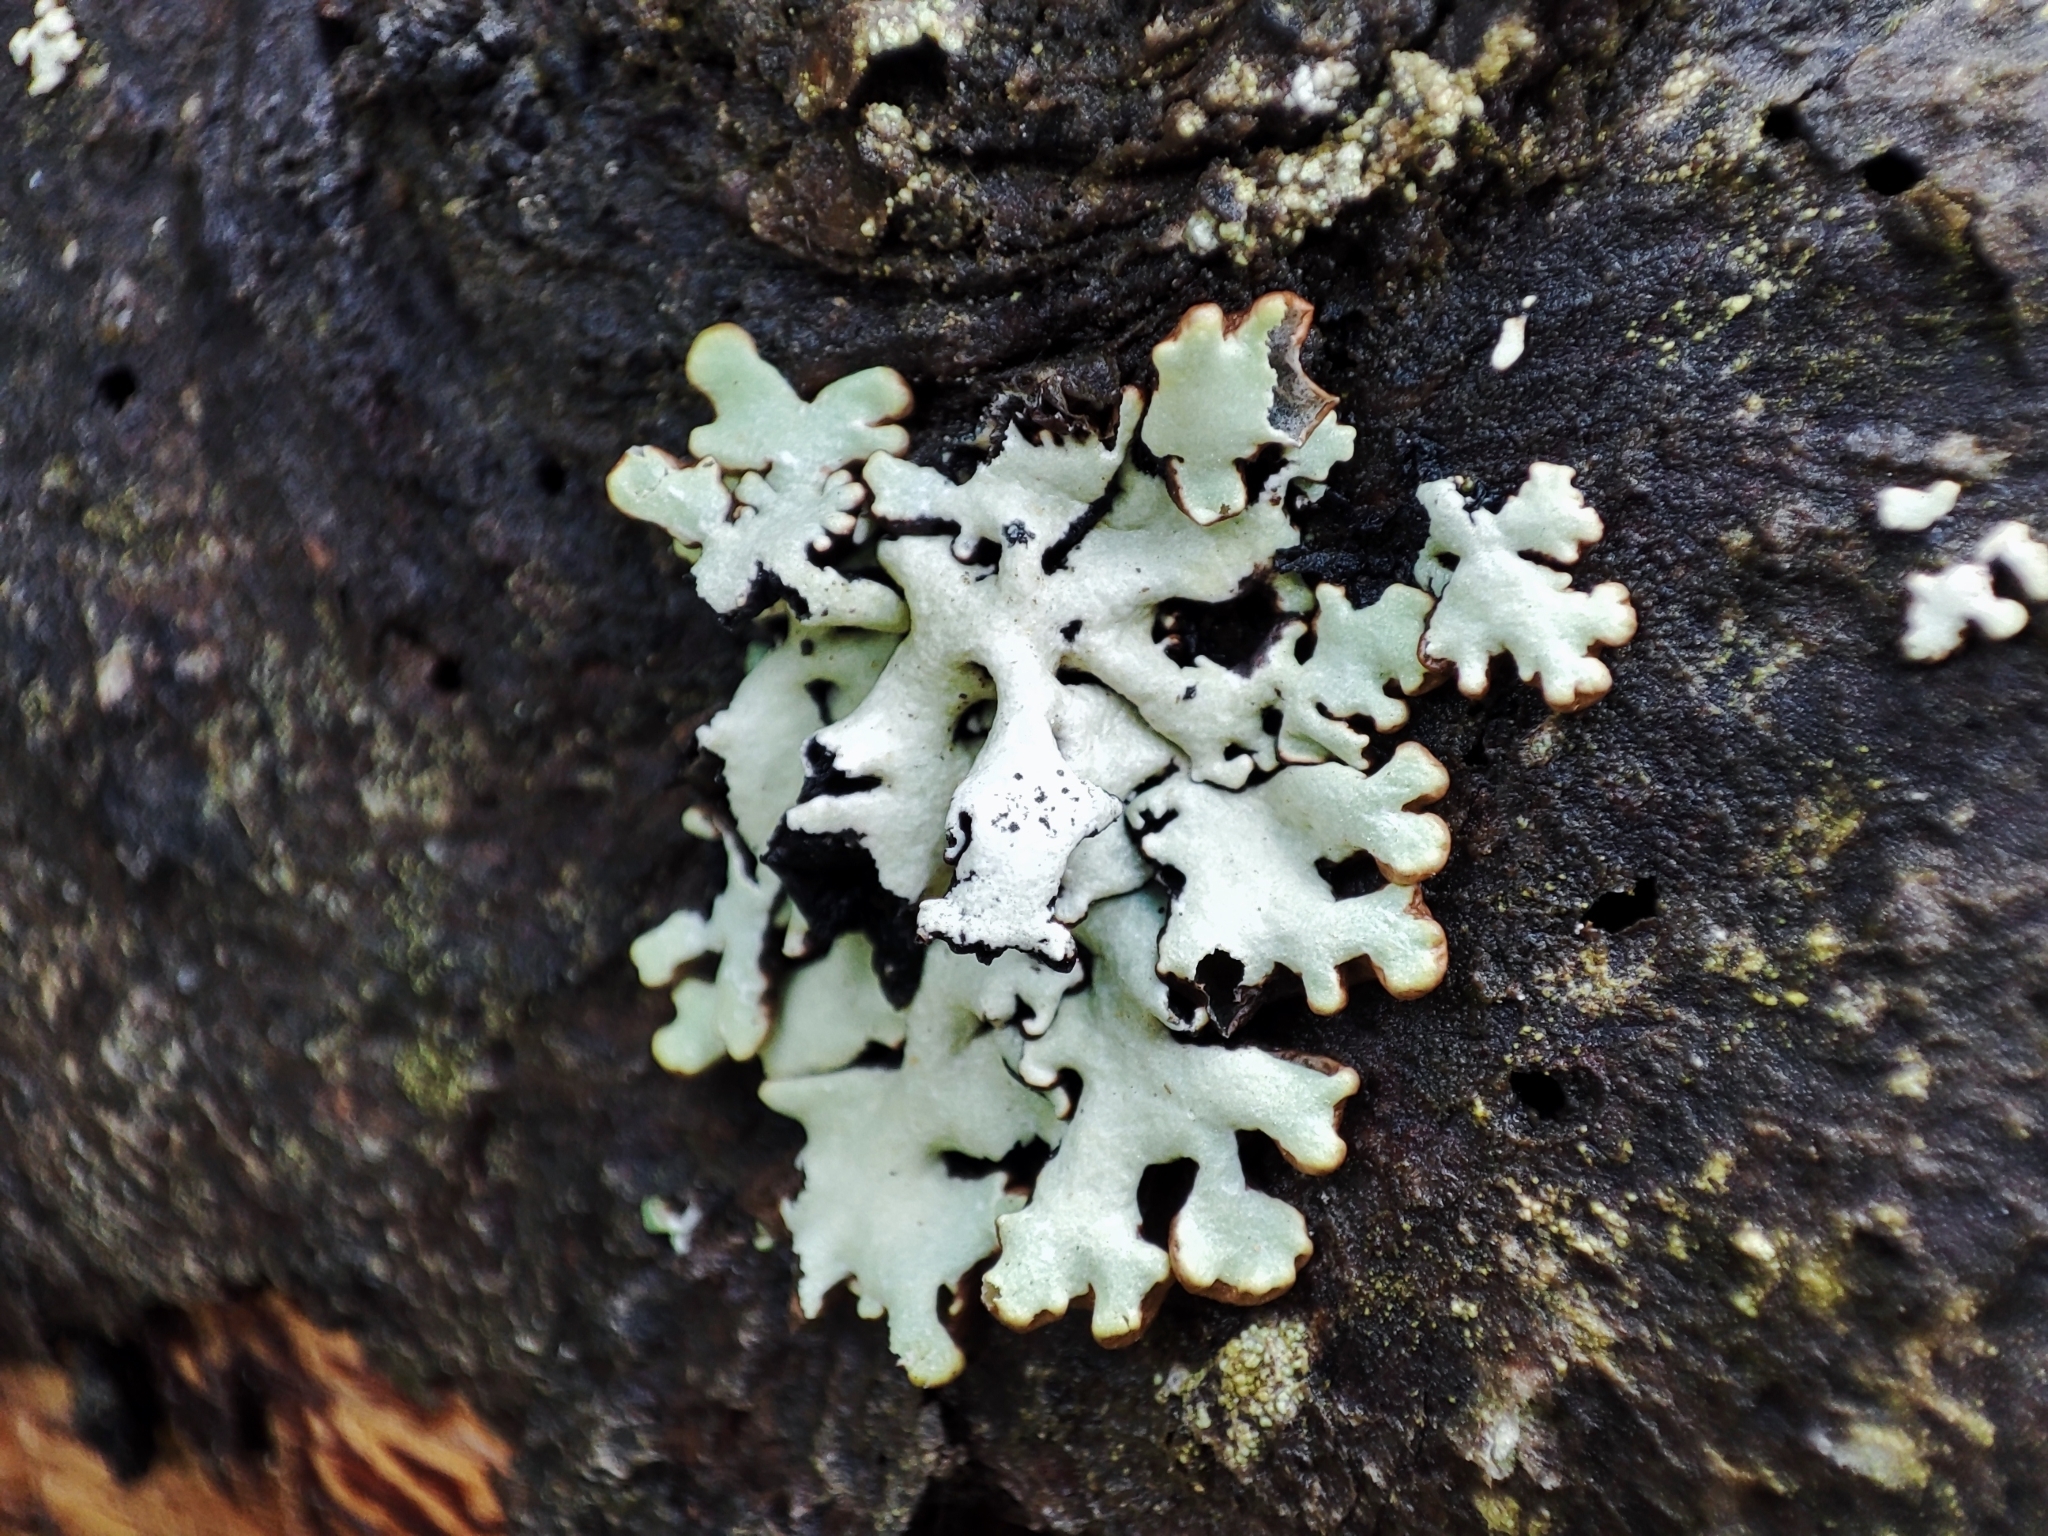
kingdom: Fungi
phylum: Ascomycota
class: Lecanoromycetes
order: Lecanorales
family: Parmeliaceae
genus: Hypogymnia
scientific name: Hypogymnia physodes
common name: Dark crottle
